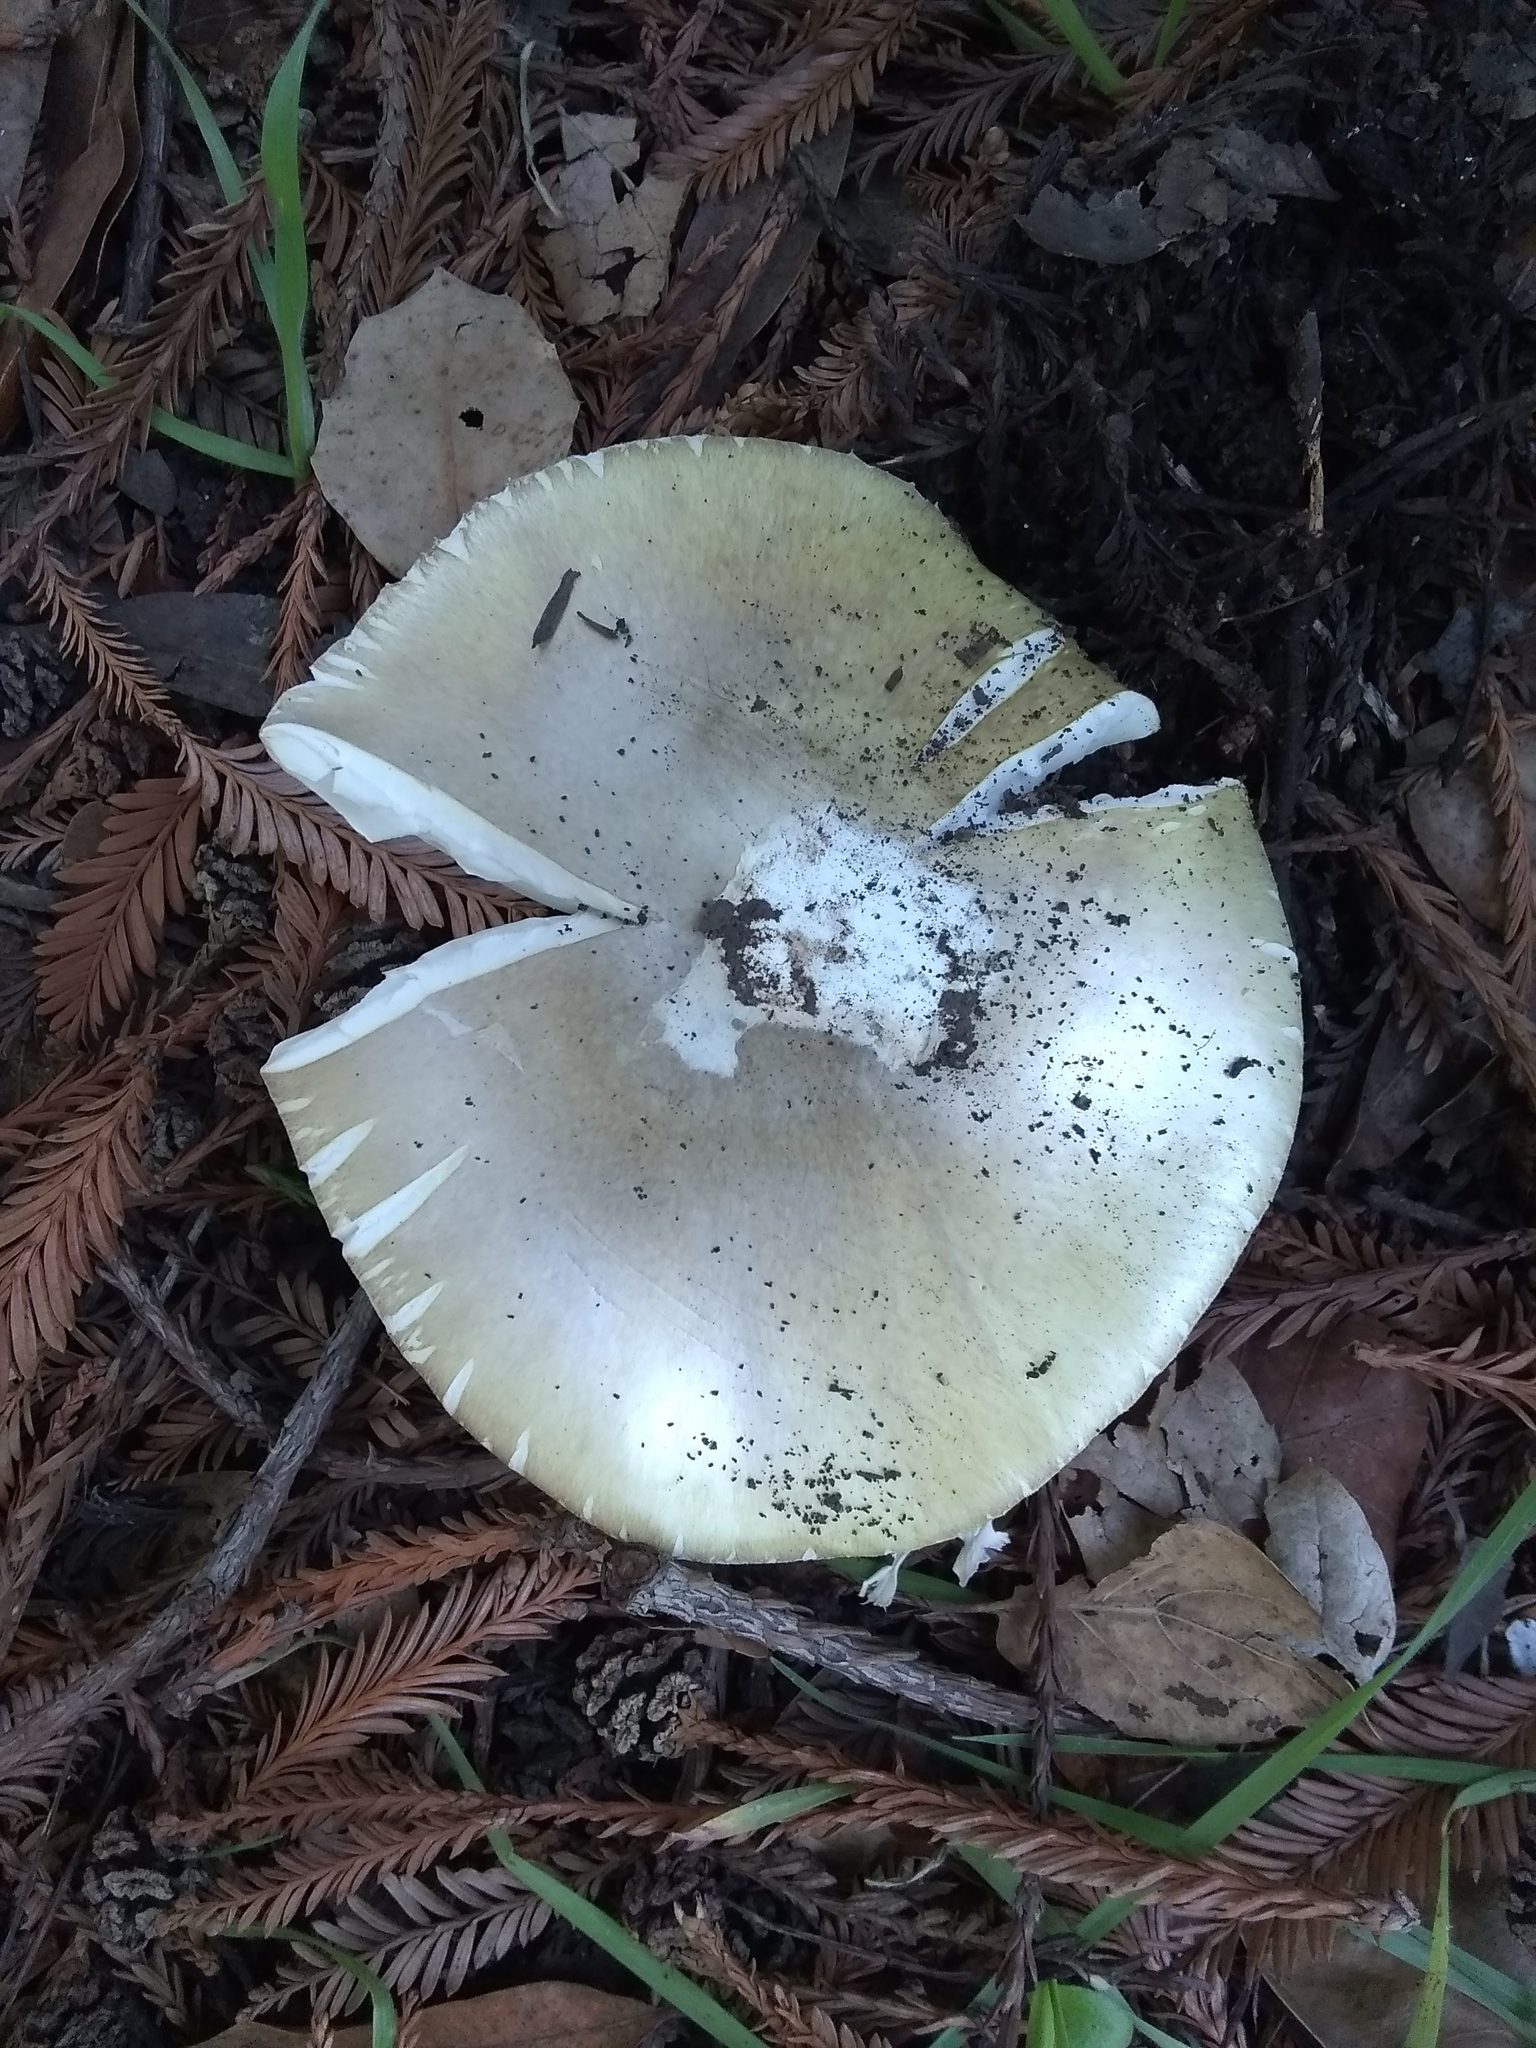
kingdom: Fungi
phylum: Basidiomycota
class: Agaricomycetes
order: Agaricales
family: Amanitaceae
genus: Amanita
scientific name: Amanita phalloides
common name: Death cap
